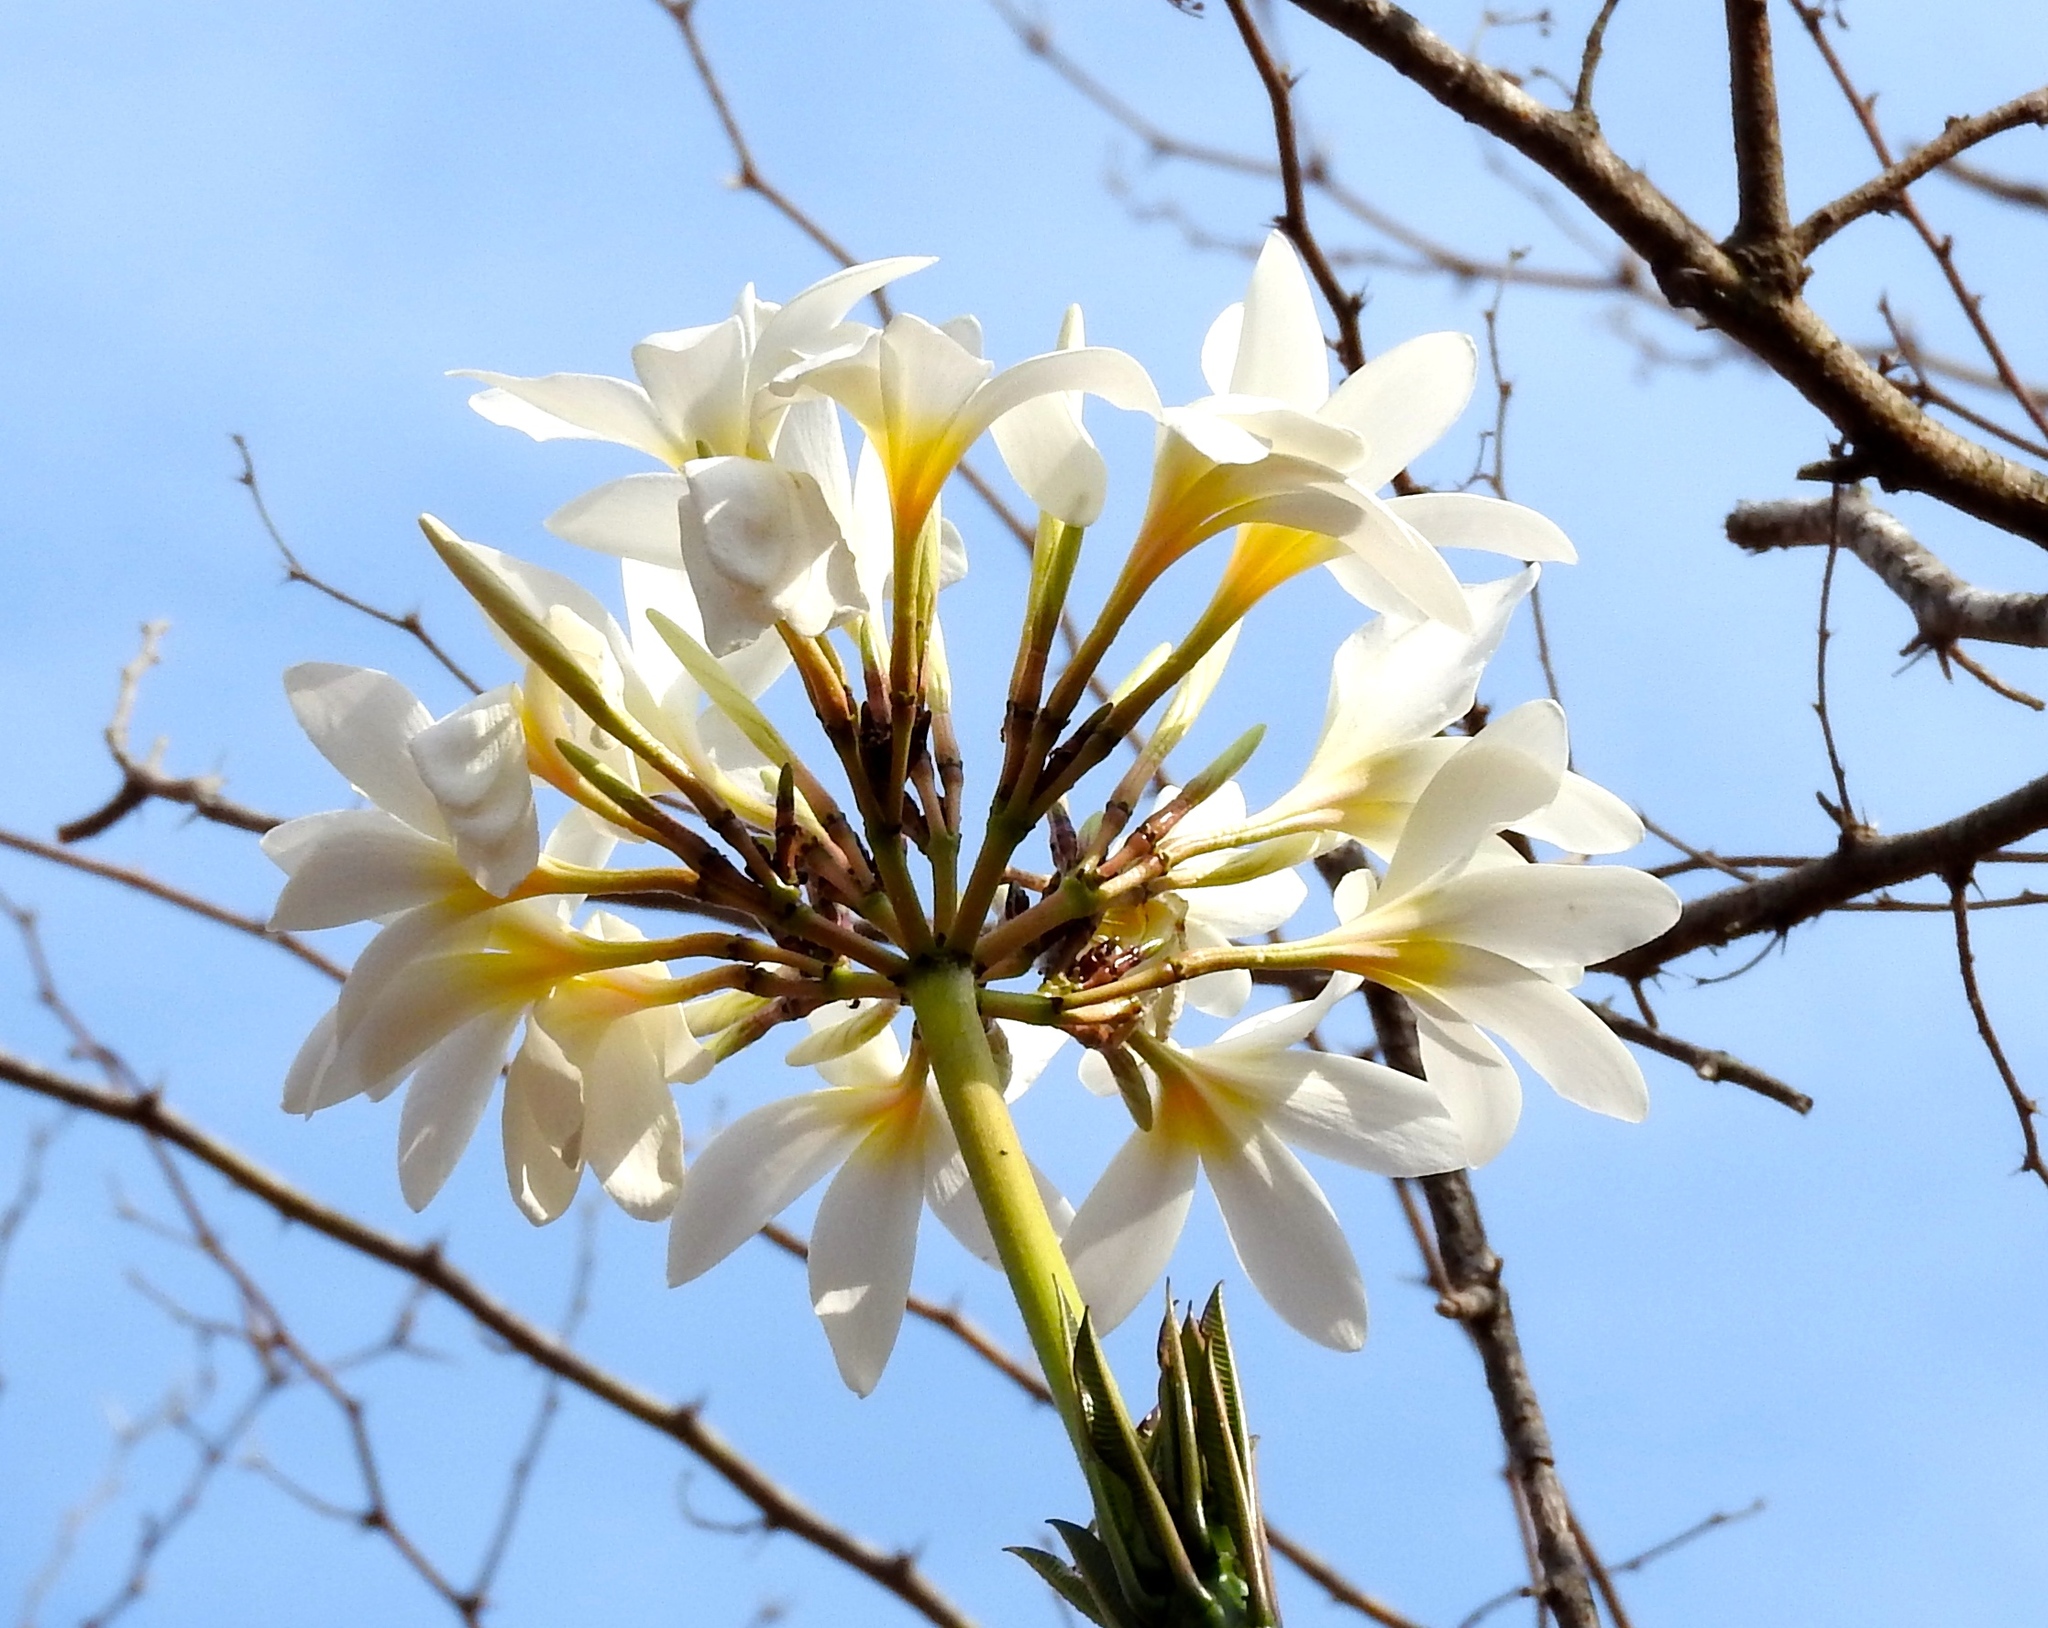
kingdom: Plantae
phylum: Tracheophyta
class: Magnoliopsida
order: Gentianales
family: Apocynaceae
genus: Plumeria
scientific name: Plumeria rubra
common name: Pagoda-tree
